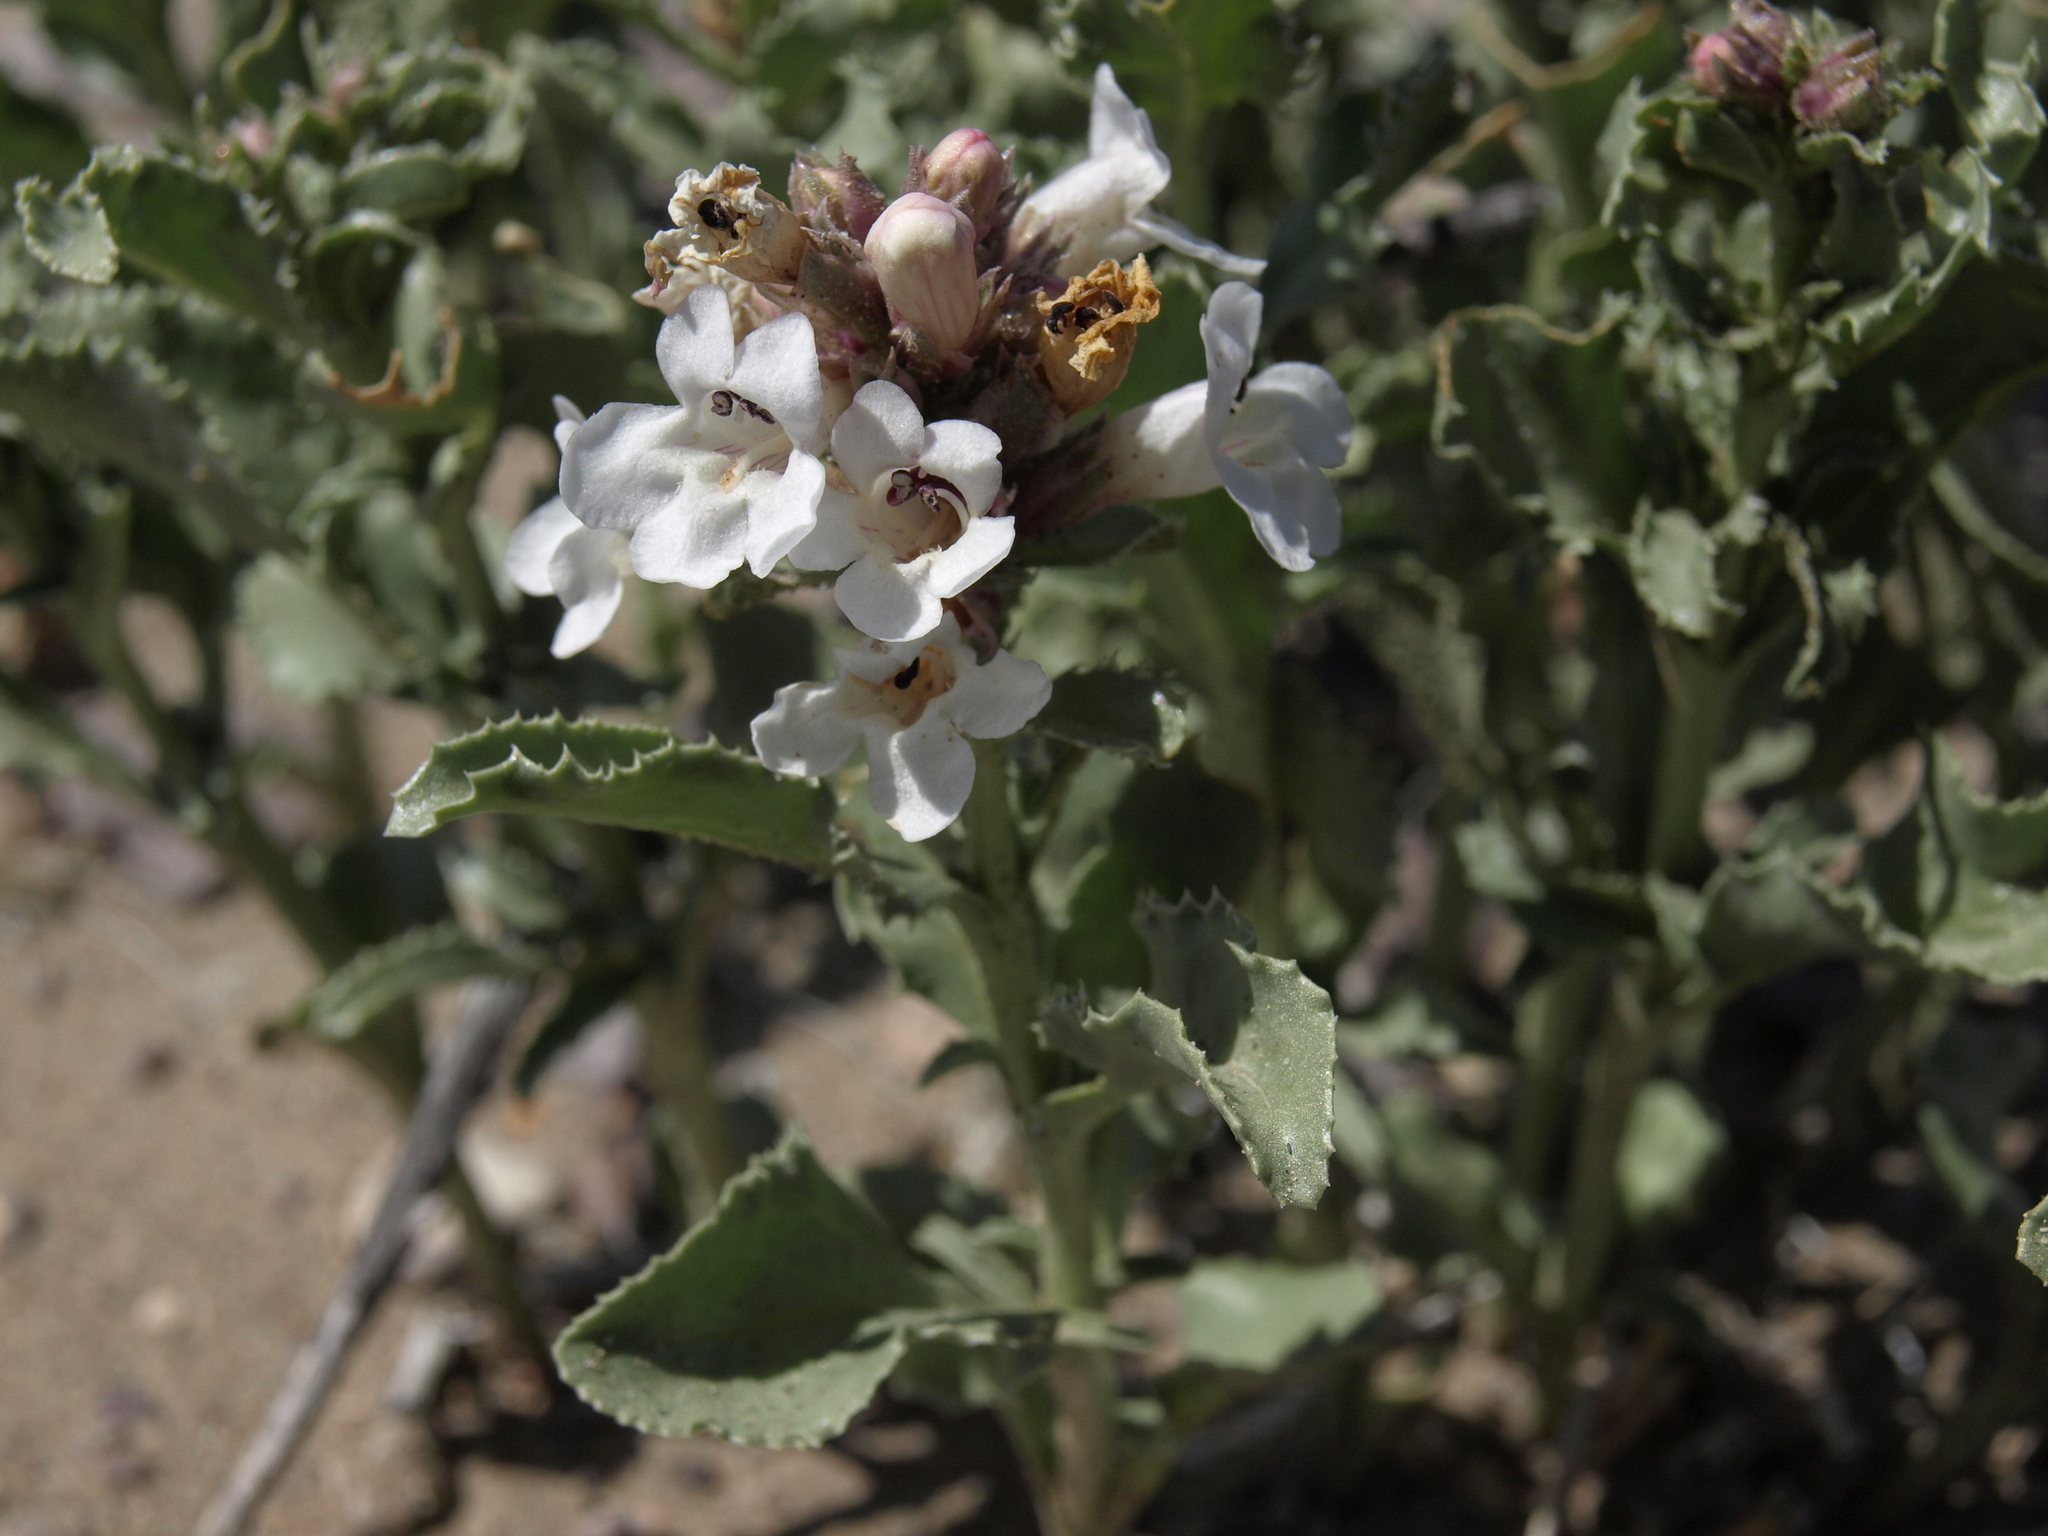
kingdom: Plantae
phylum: Tracheophyta
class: Magnoliopsida
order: Lamiales
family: Plantaginaceae
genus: Penstemon
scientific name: Penstemon arenarius
